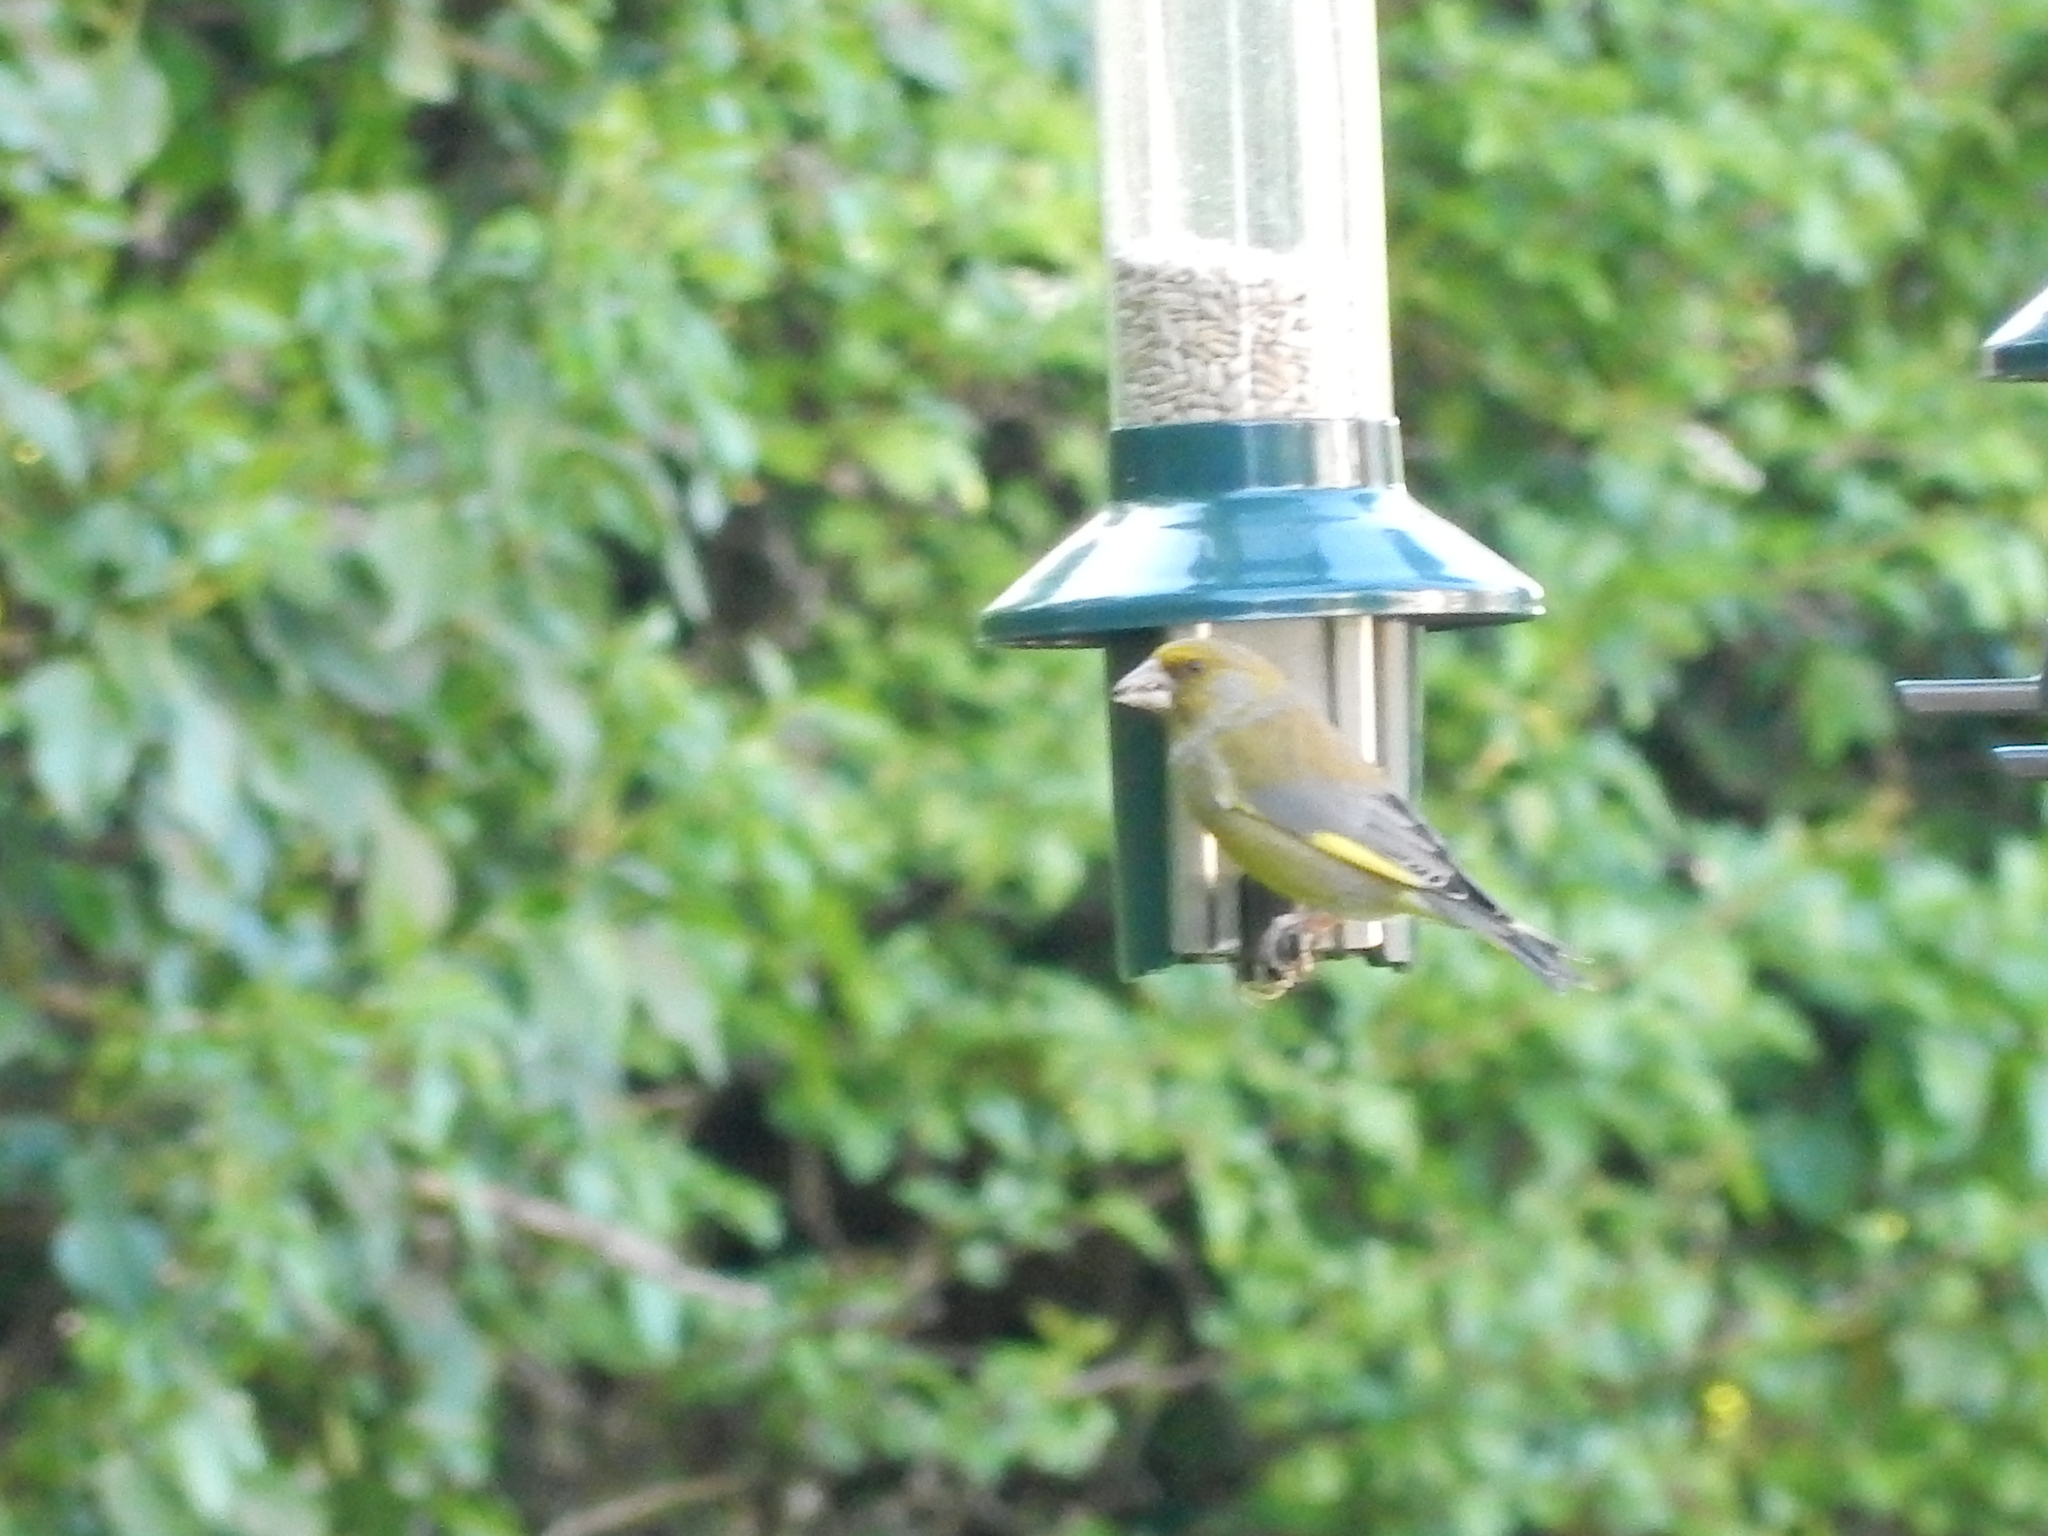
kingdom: Plantae
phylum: Tracheophyta
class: Liliopsida
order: Poales
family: Poaceae
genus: Chloris
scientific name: Chloris chloris
